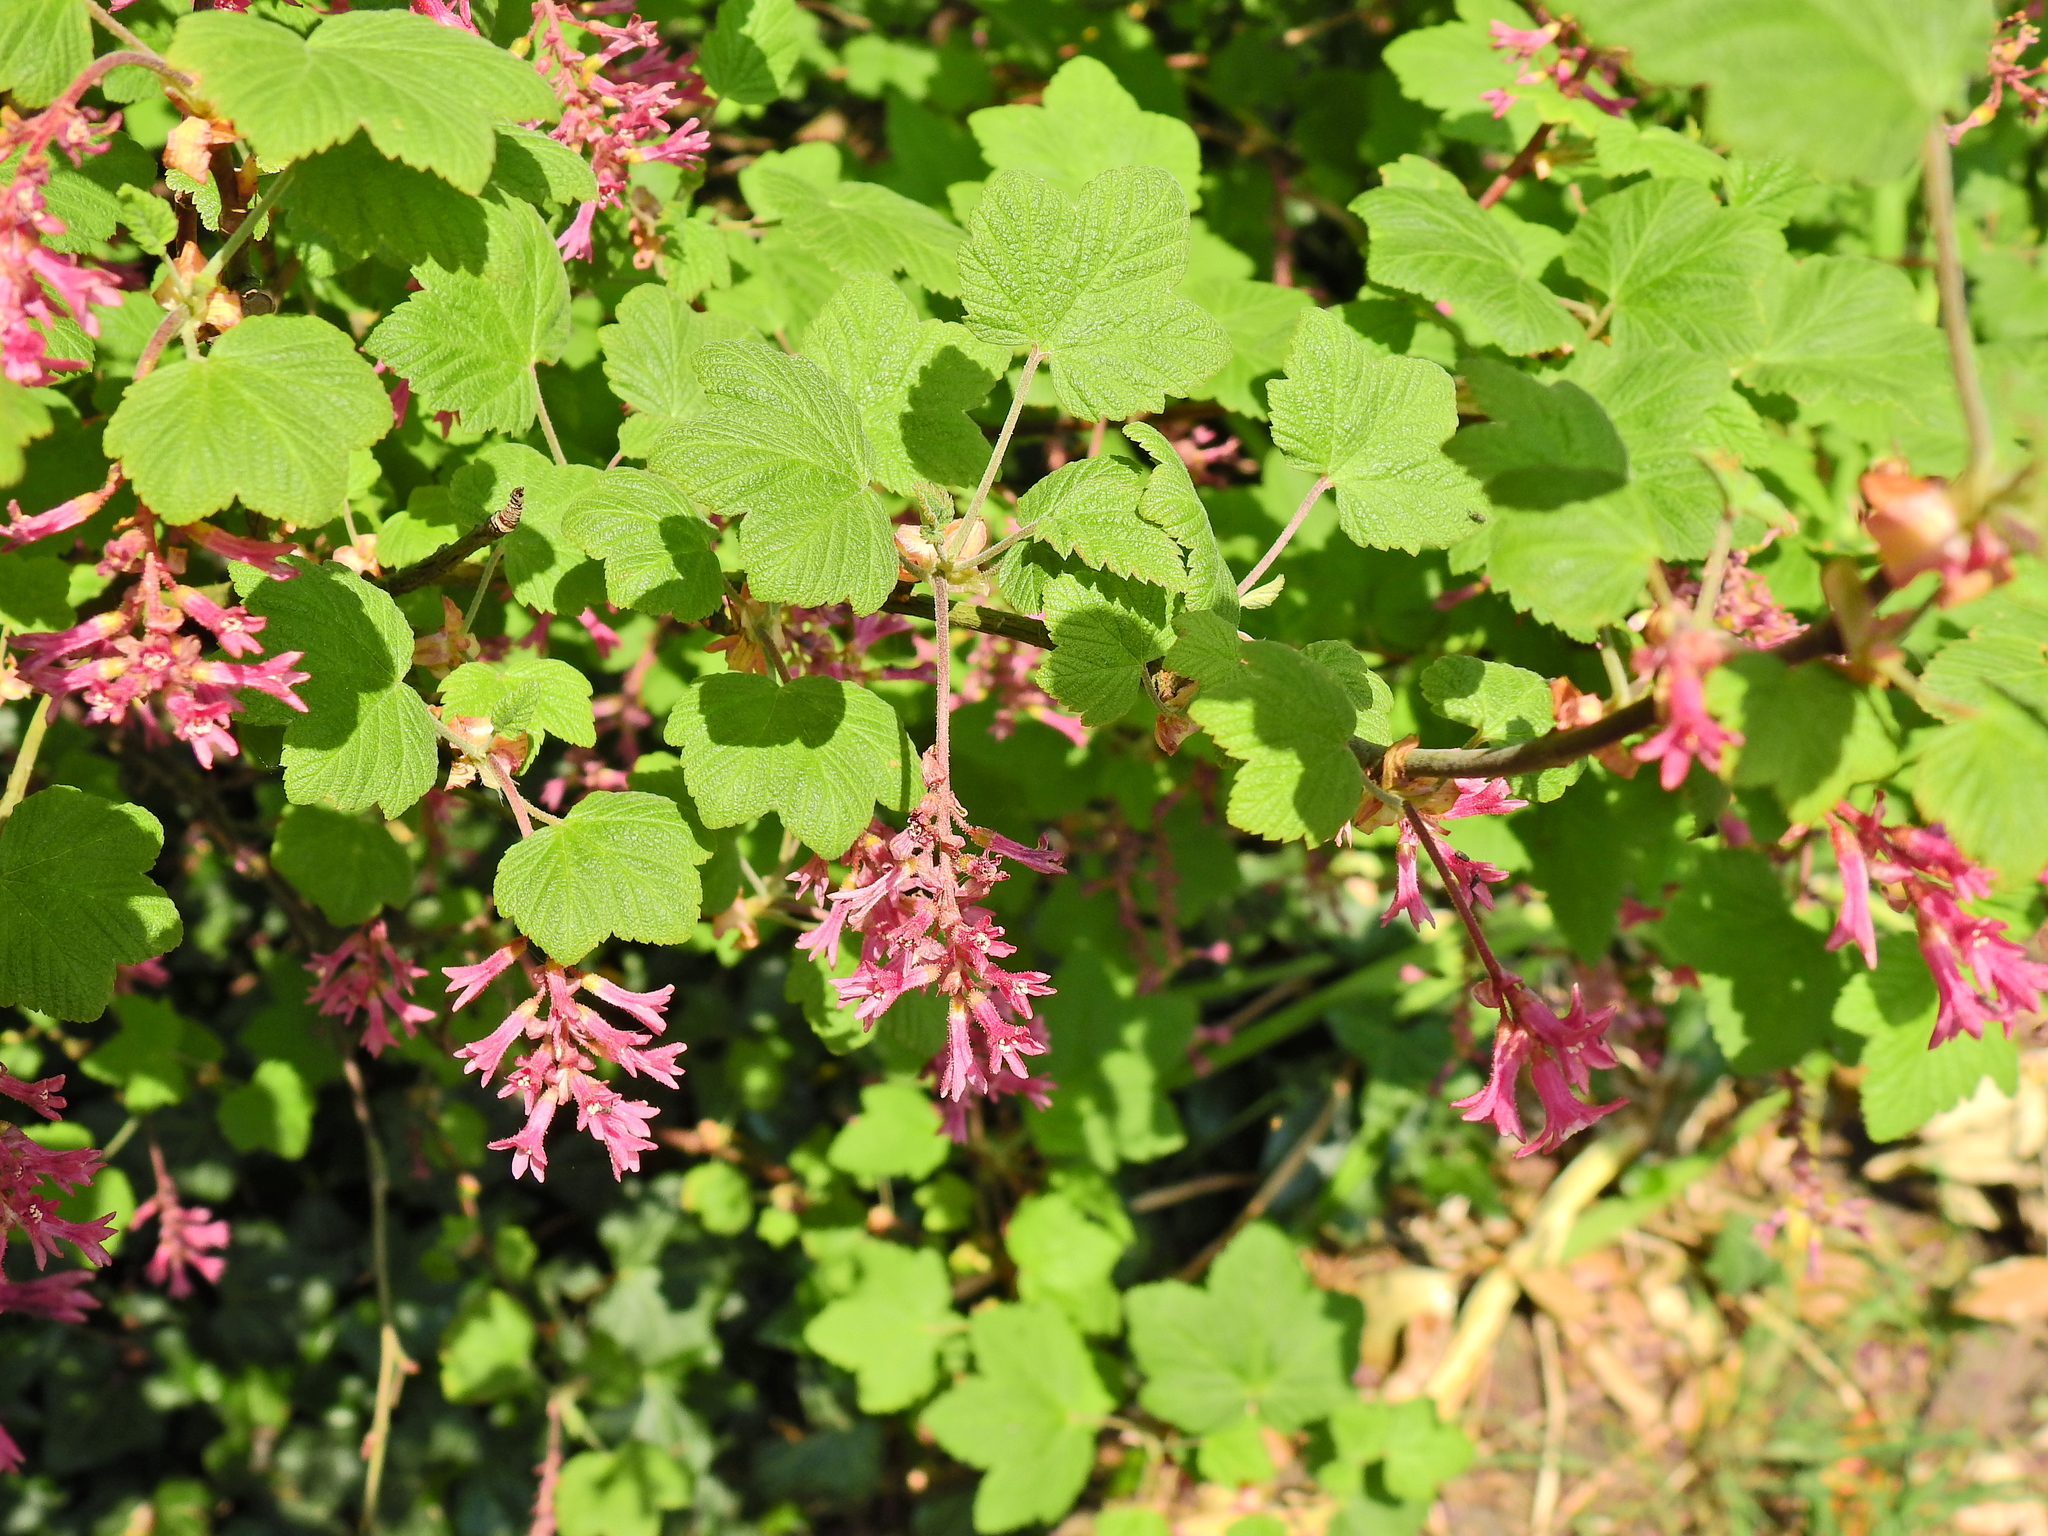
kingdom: Plantae
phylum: Tracheophyta
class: Magnoliopsida
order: Saxifragales
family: Grossulariaceae
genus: Ribes
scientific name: Ribes sanguineum
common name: Flowering currant
